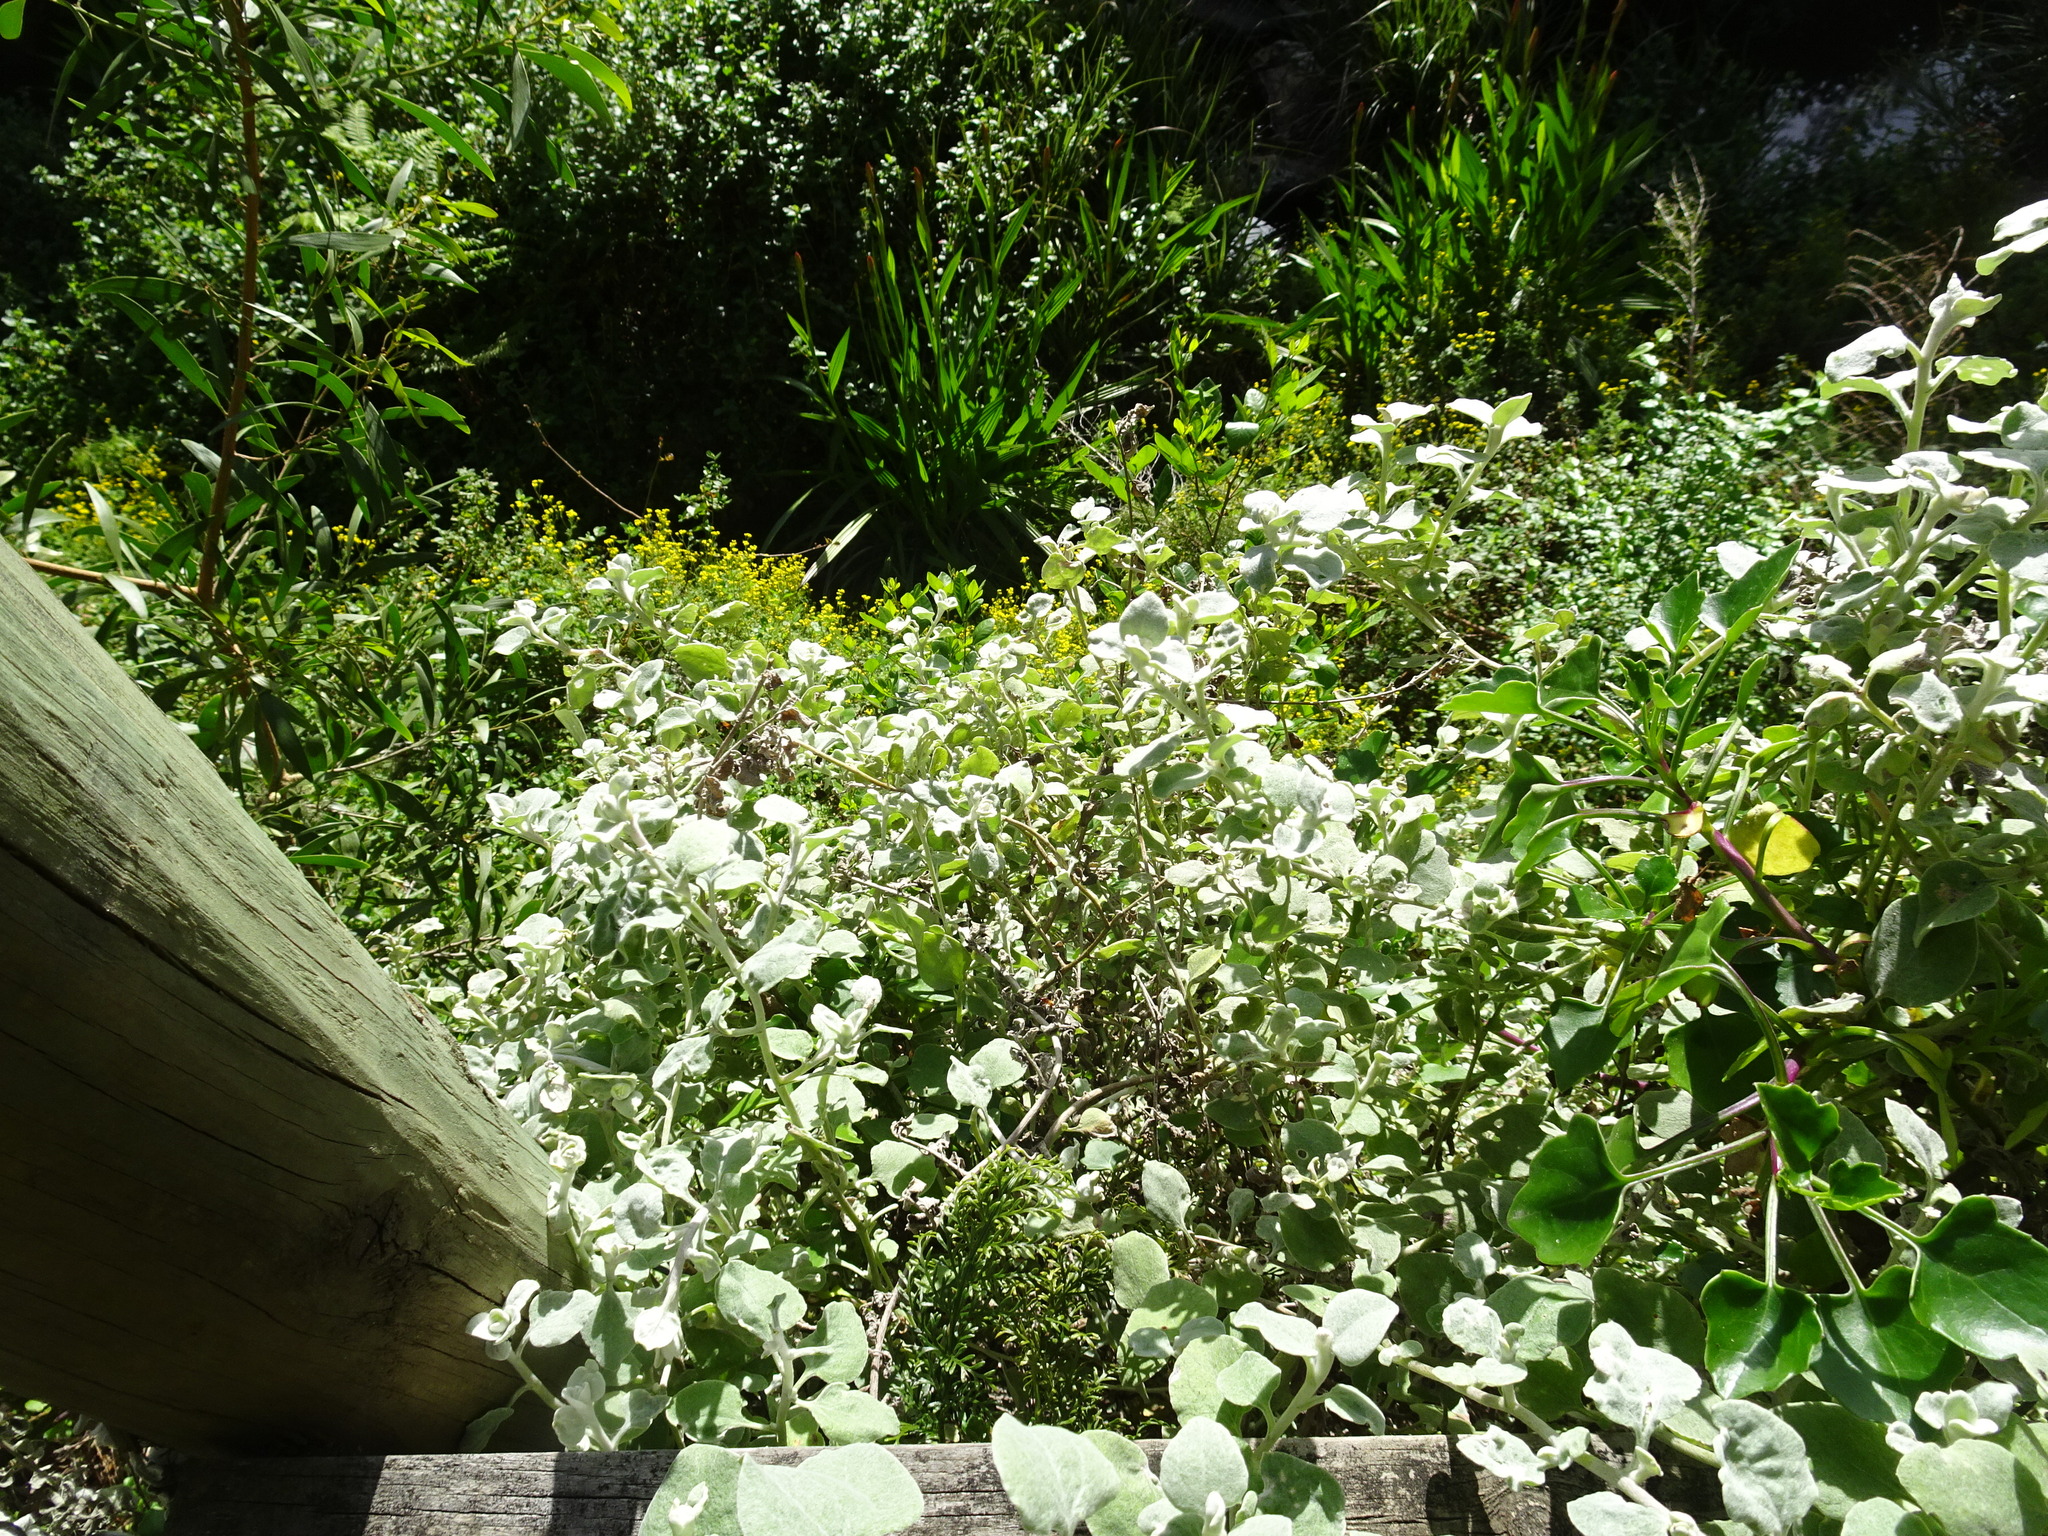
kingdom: Plantae
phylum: Tracheophyta
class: Magnoliopsida
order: Asterales
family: Asteraceae
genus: Helichrysum
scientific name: Helichrysum petiolare
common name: Licorice-plant
